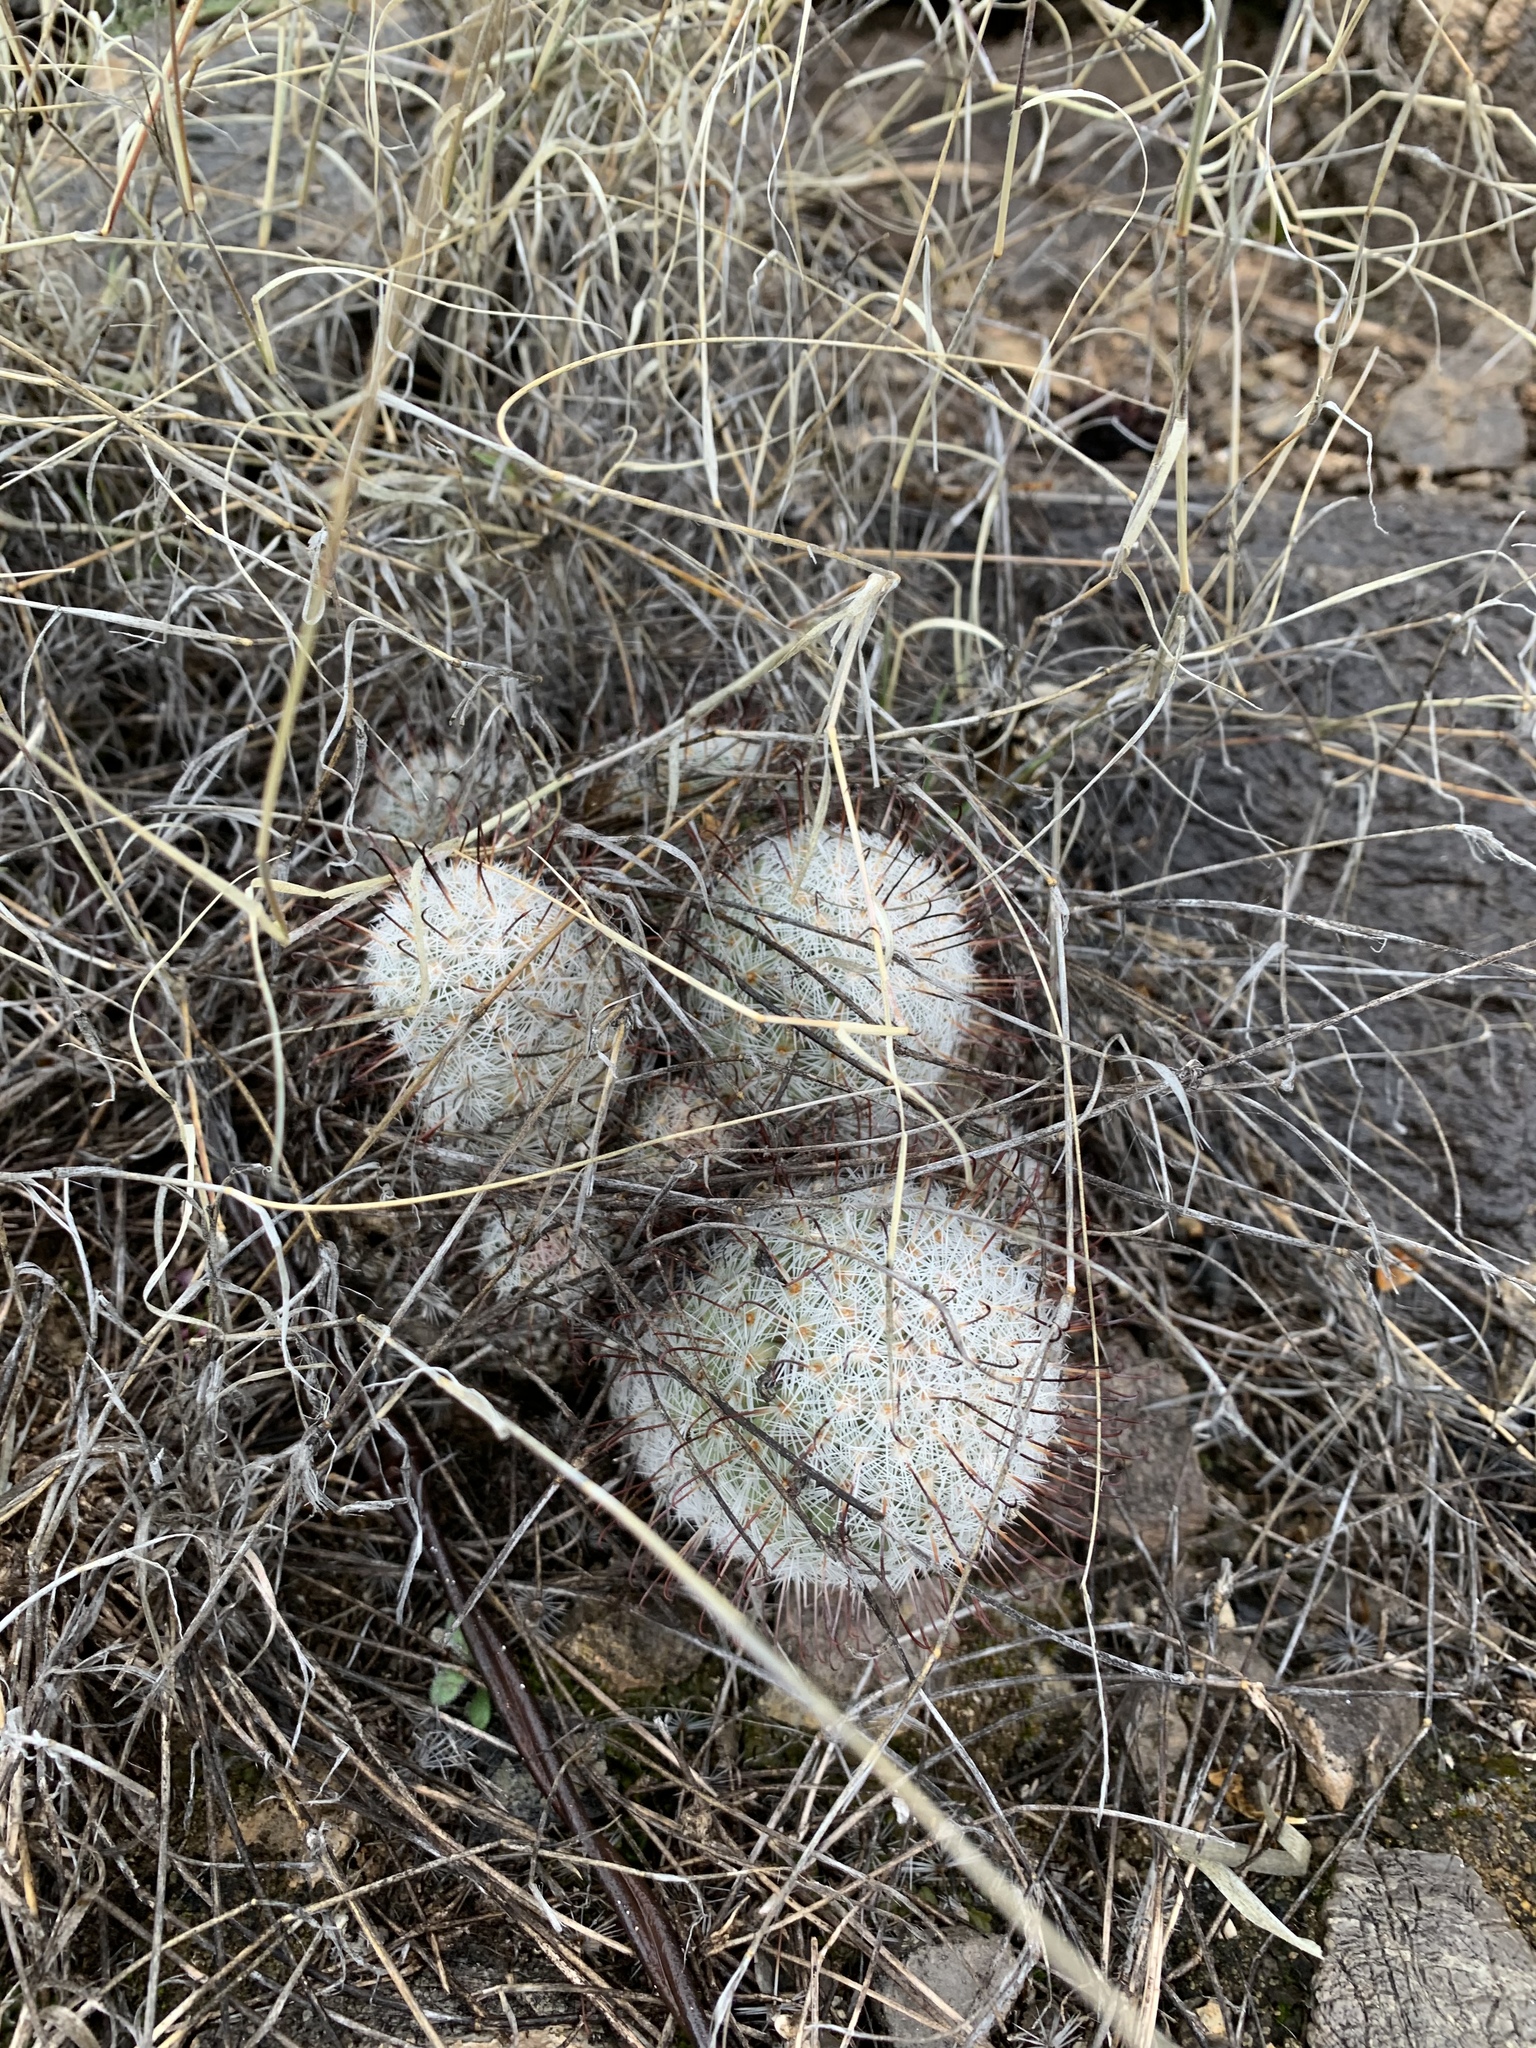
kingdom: Plantae
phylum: Tracheophyta
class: Magnoliopsida
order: Caryophyllales
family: Cactaceae
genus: Cochemiea
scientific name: Cochemiea grahamii
